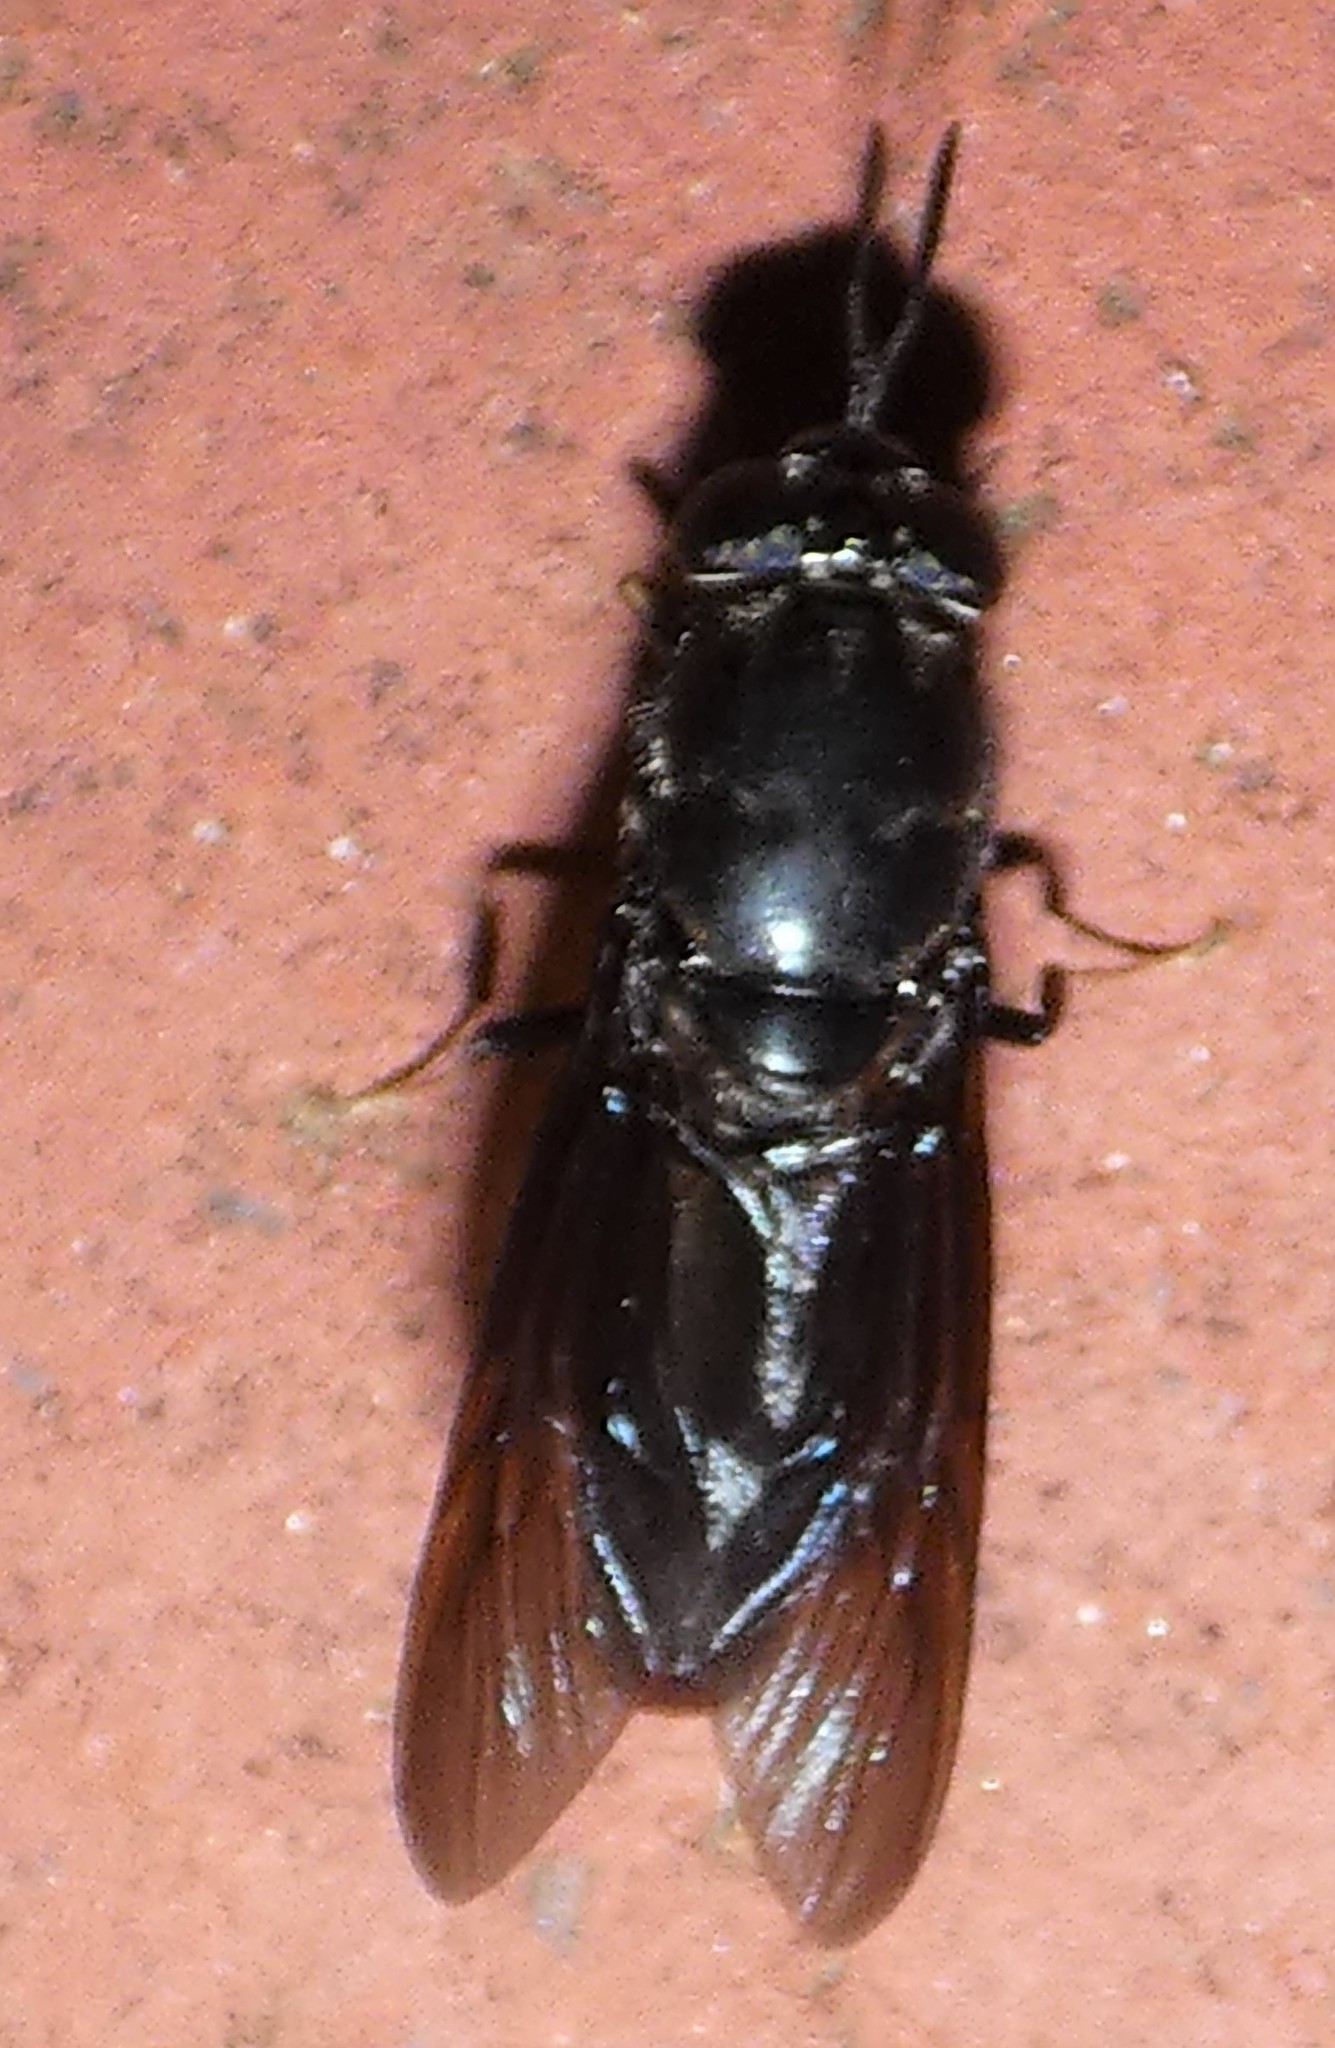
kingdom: Animalia
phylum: Arthropoda
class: Insecta
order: Diptera
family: Stratiomyidae
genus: Hermetia
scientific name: Hermetia illucens
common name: Black soldier fly
